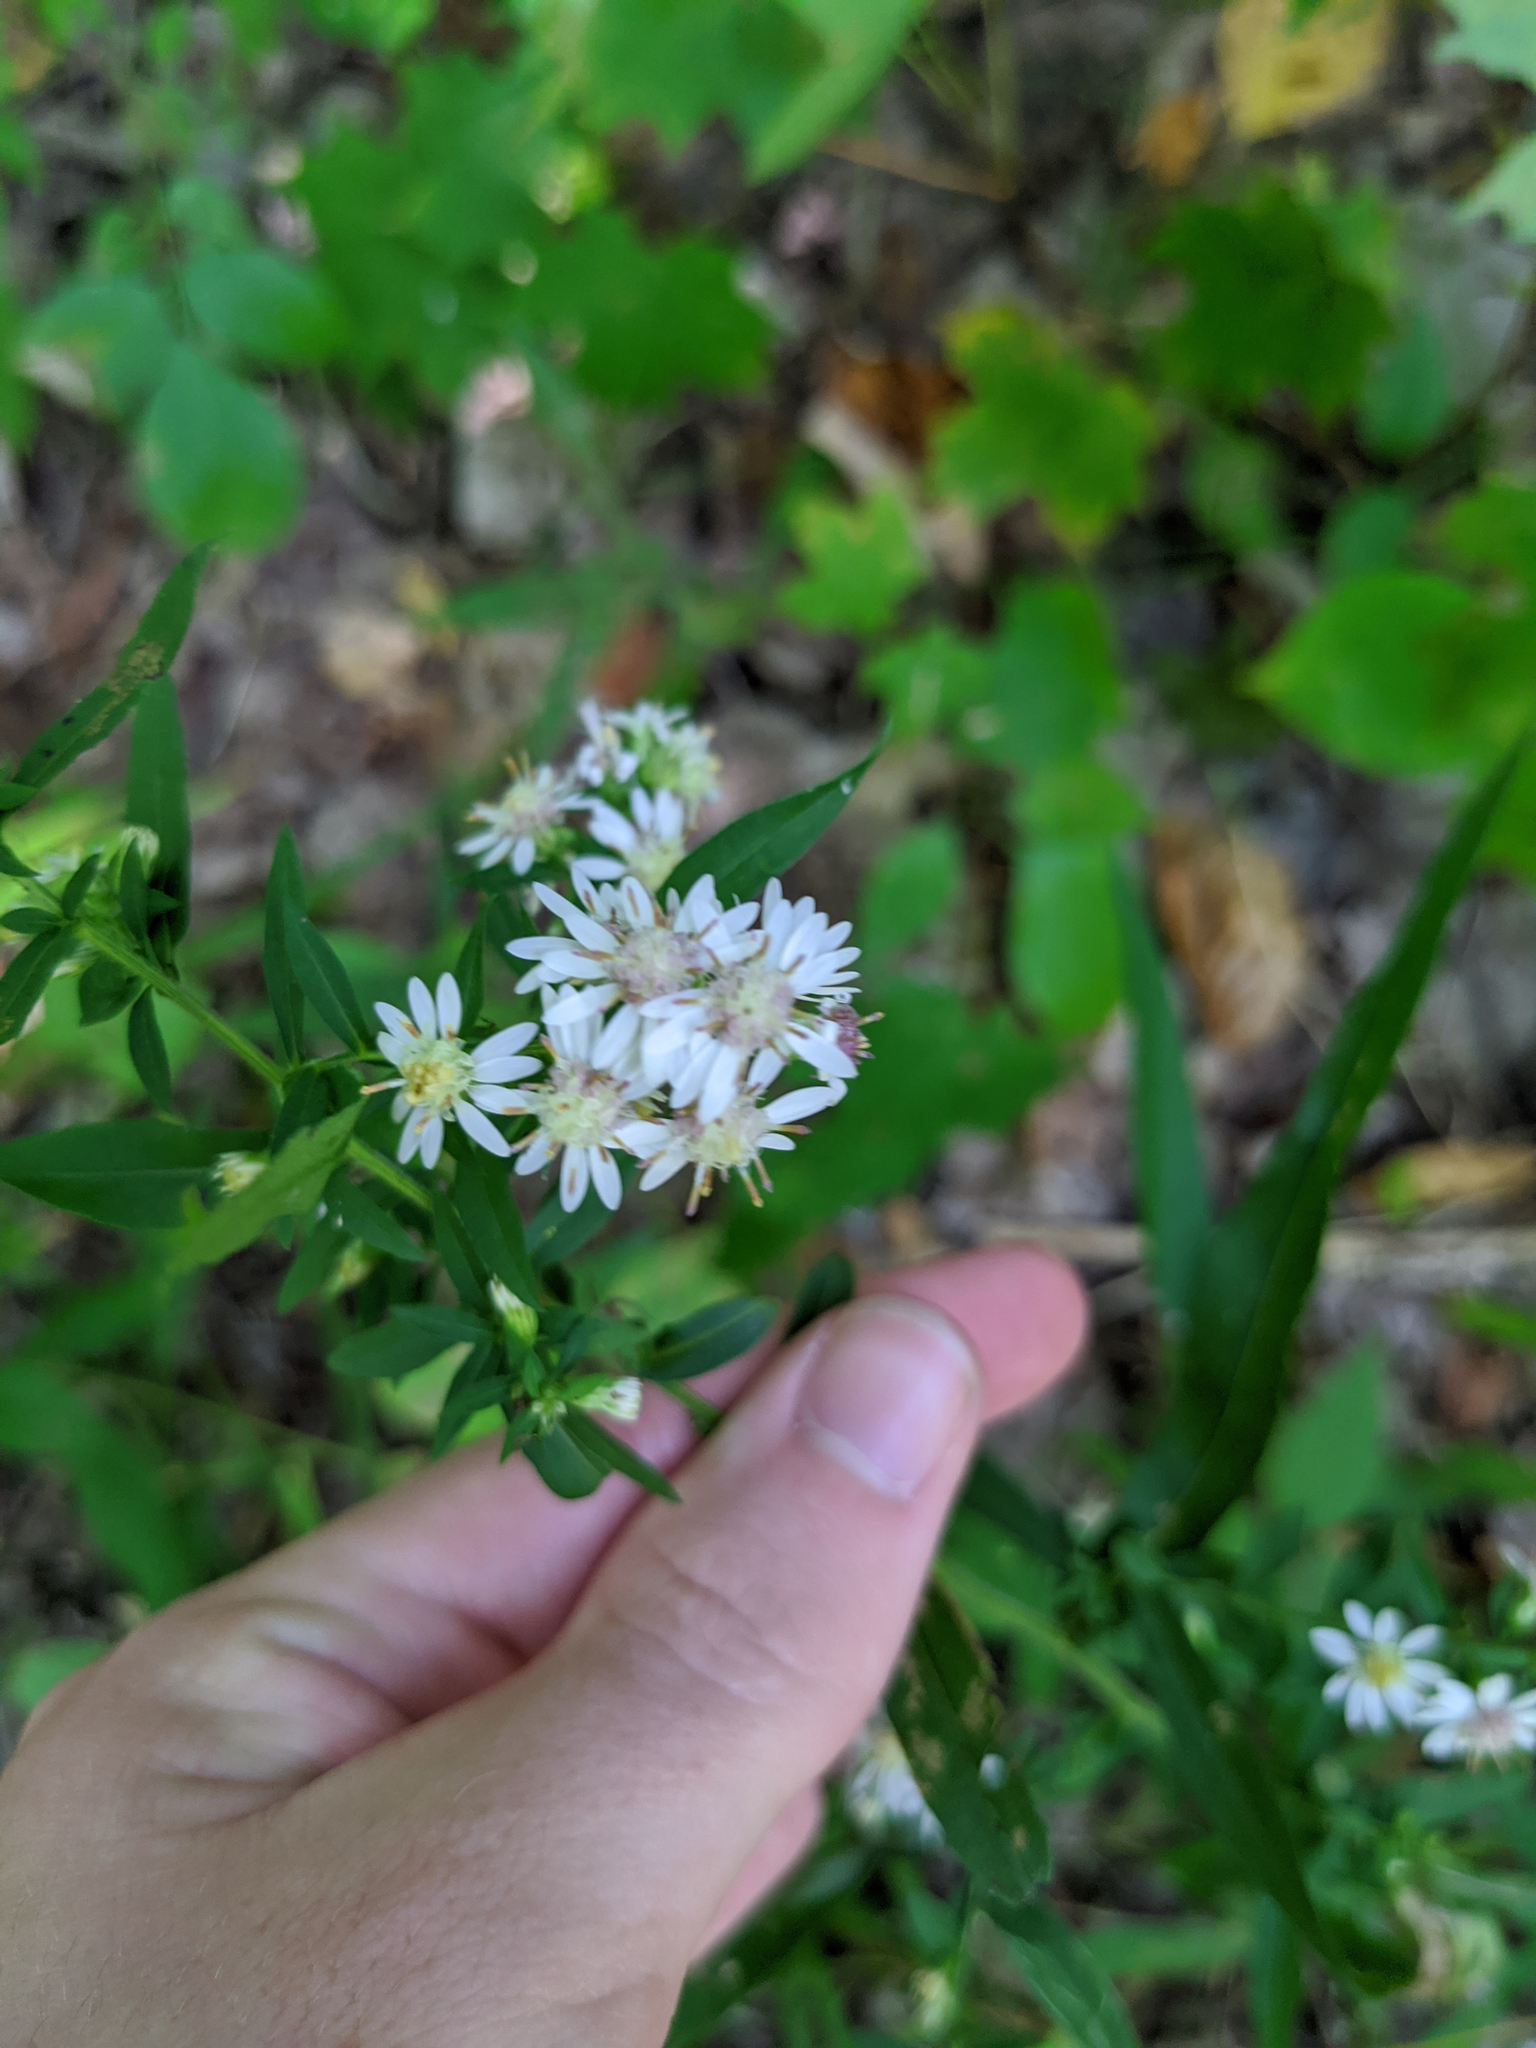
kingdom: Plantae
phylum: Tracheophyta
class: Magnoliopsida
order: Asterales
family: Asteraceae
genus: Symphyotrichum
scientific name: Symphyotrichum lateriflorum
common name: Calico aster
